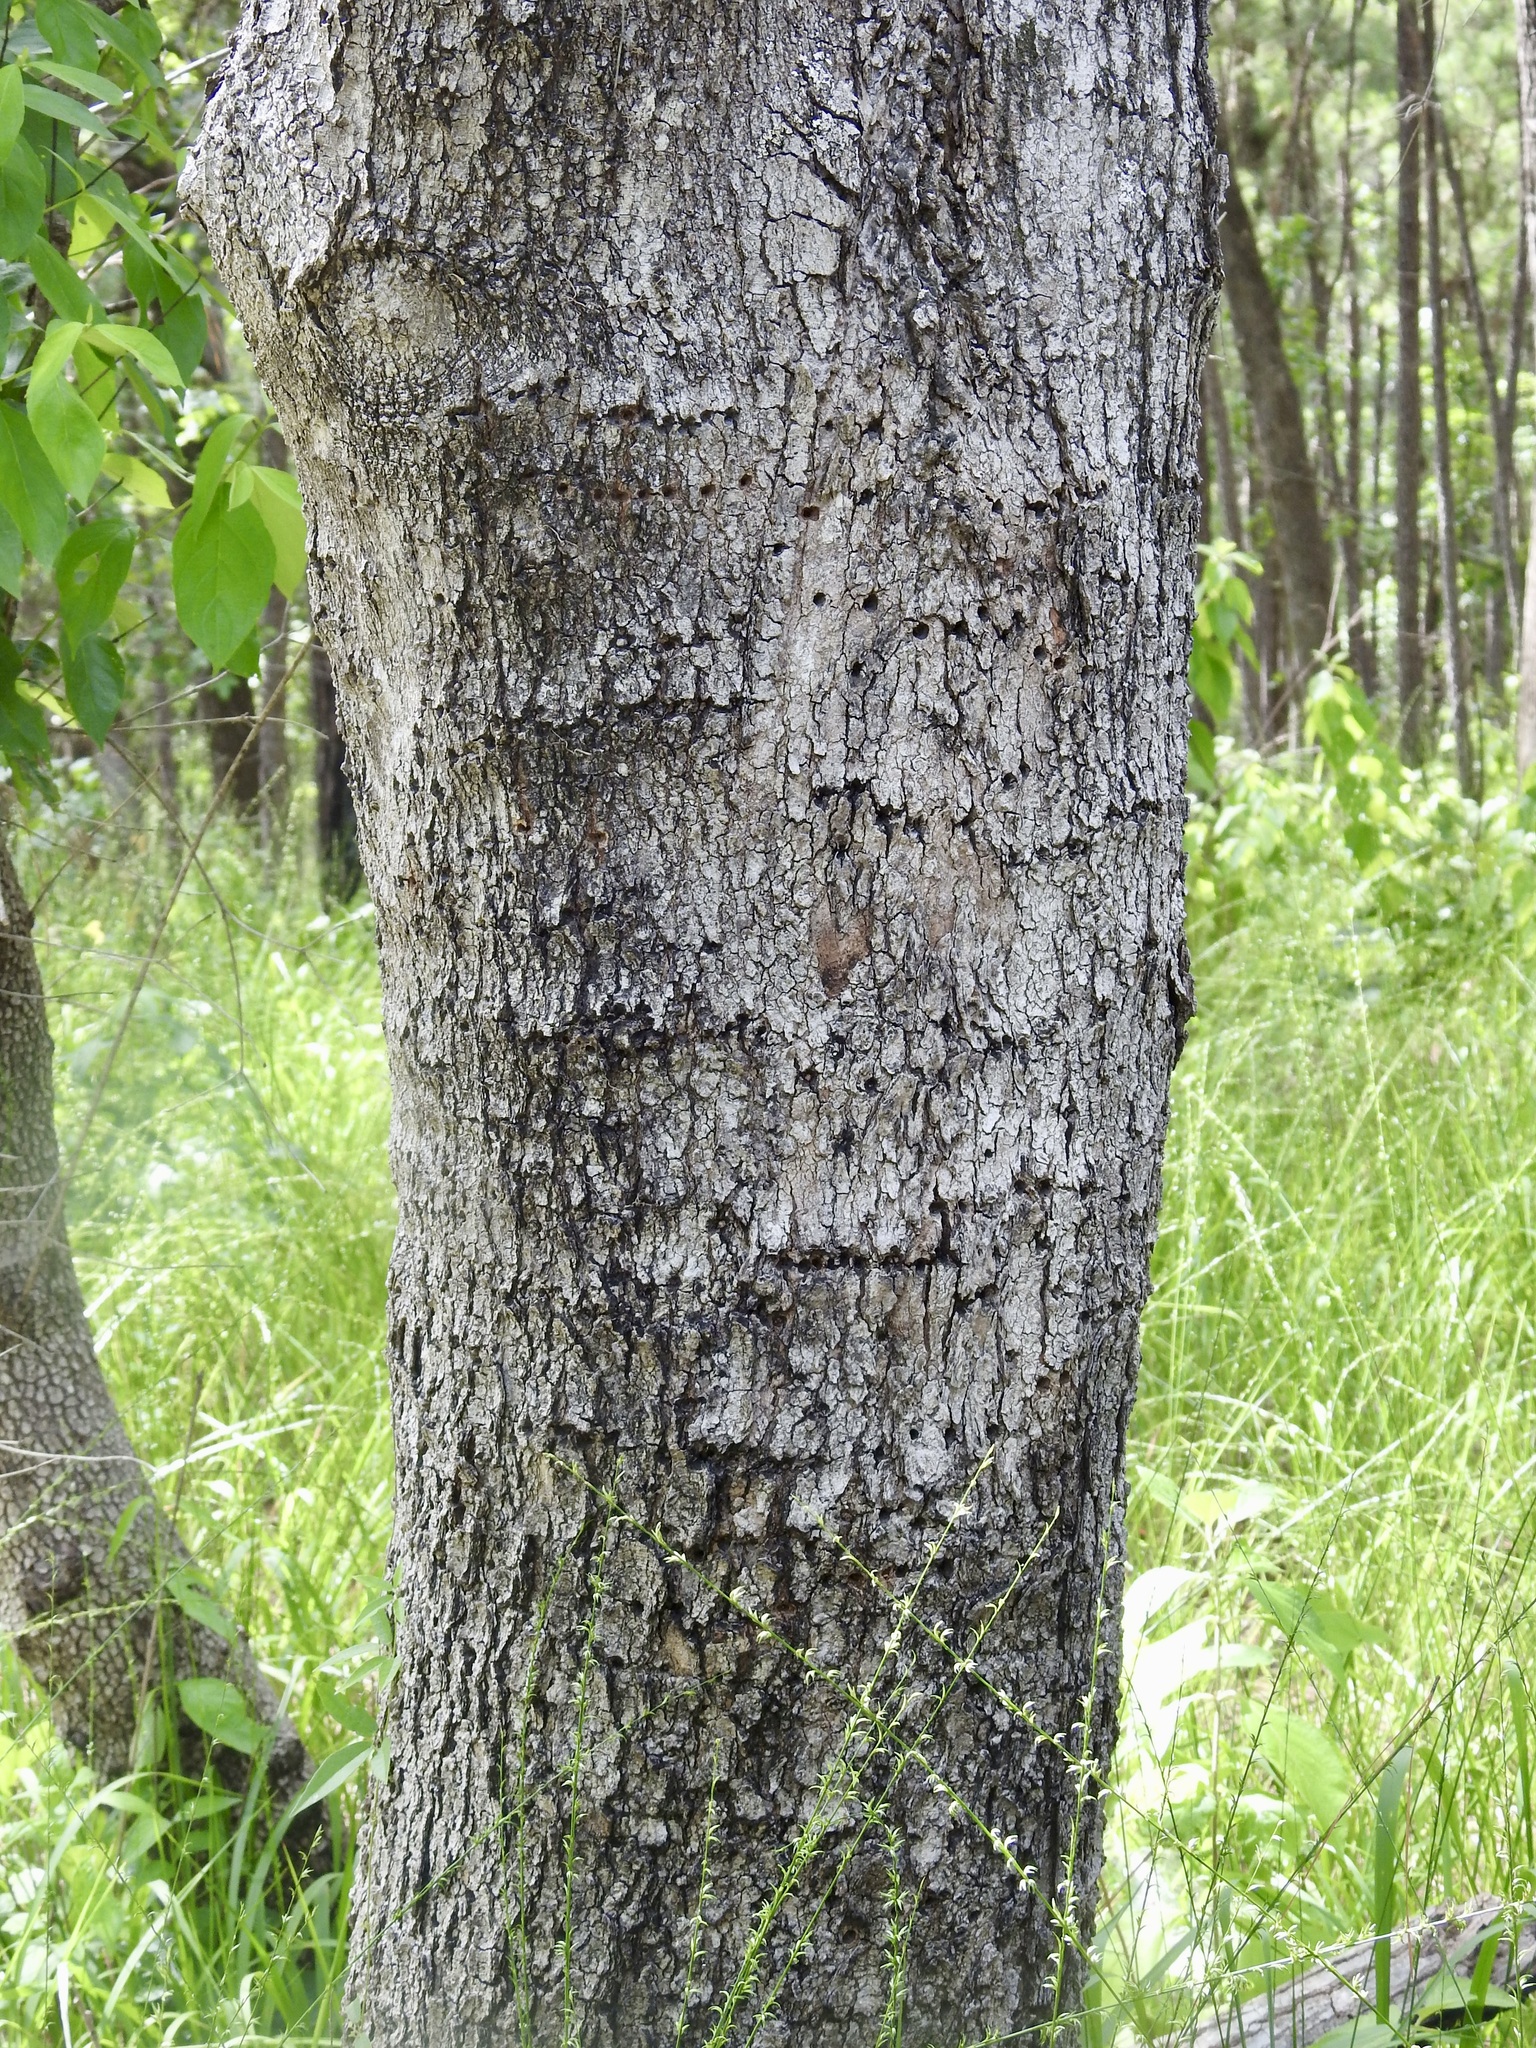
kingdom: Plantae
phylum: Tracheophyta
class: Magnoliopsida
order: Sapindales
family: Sapindaceae
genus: Acer
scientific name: Acer floridanum
